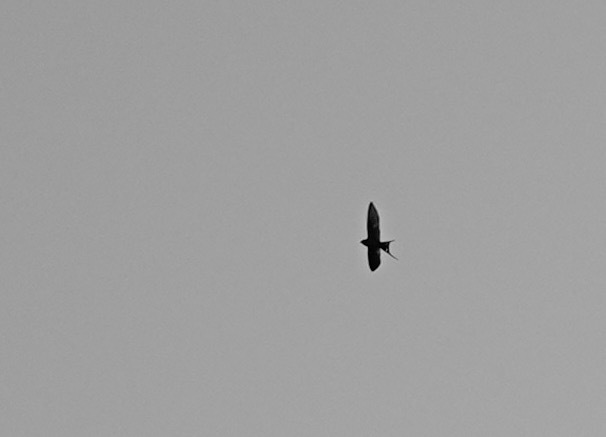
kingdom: Animalia
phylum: Chordata
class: Aves
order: Passeriformes
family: Hirundinidae
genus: Hirundo
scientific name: Hirundo rustica
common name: Barn swallow
